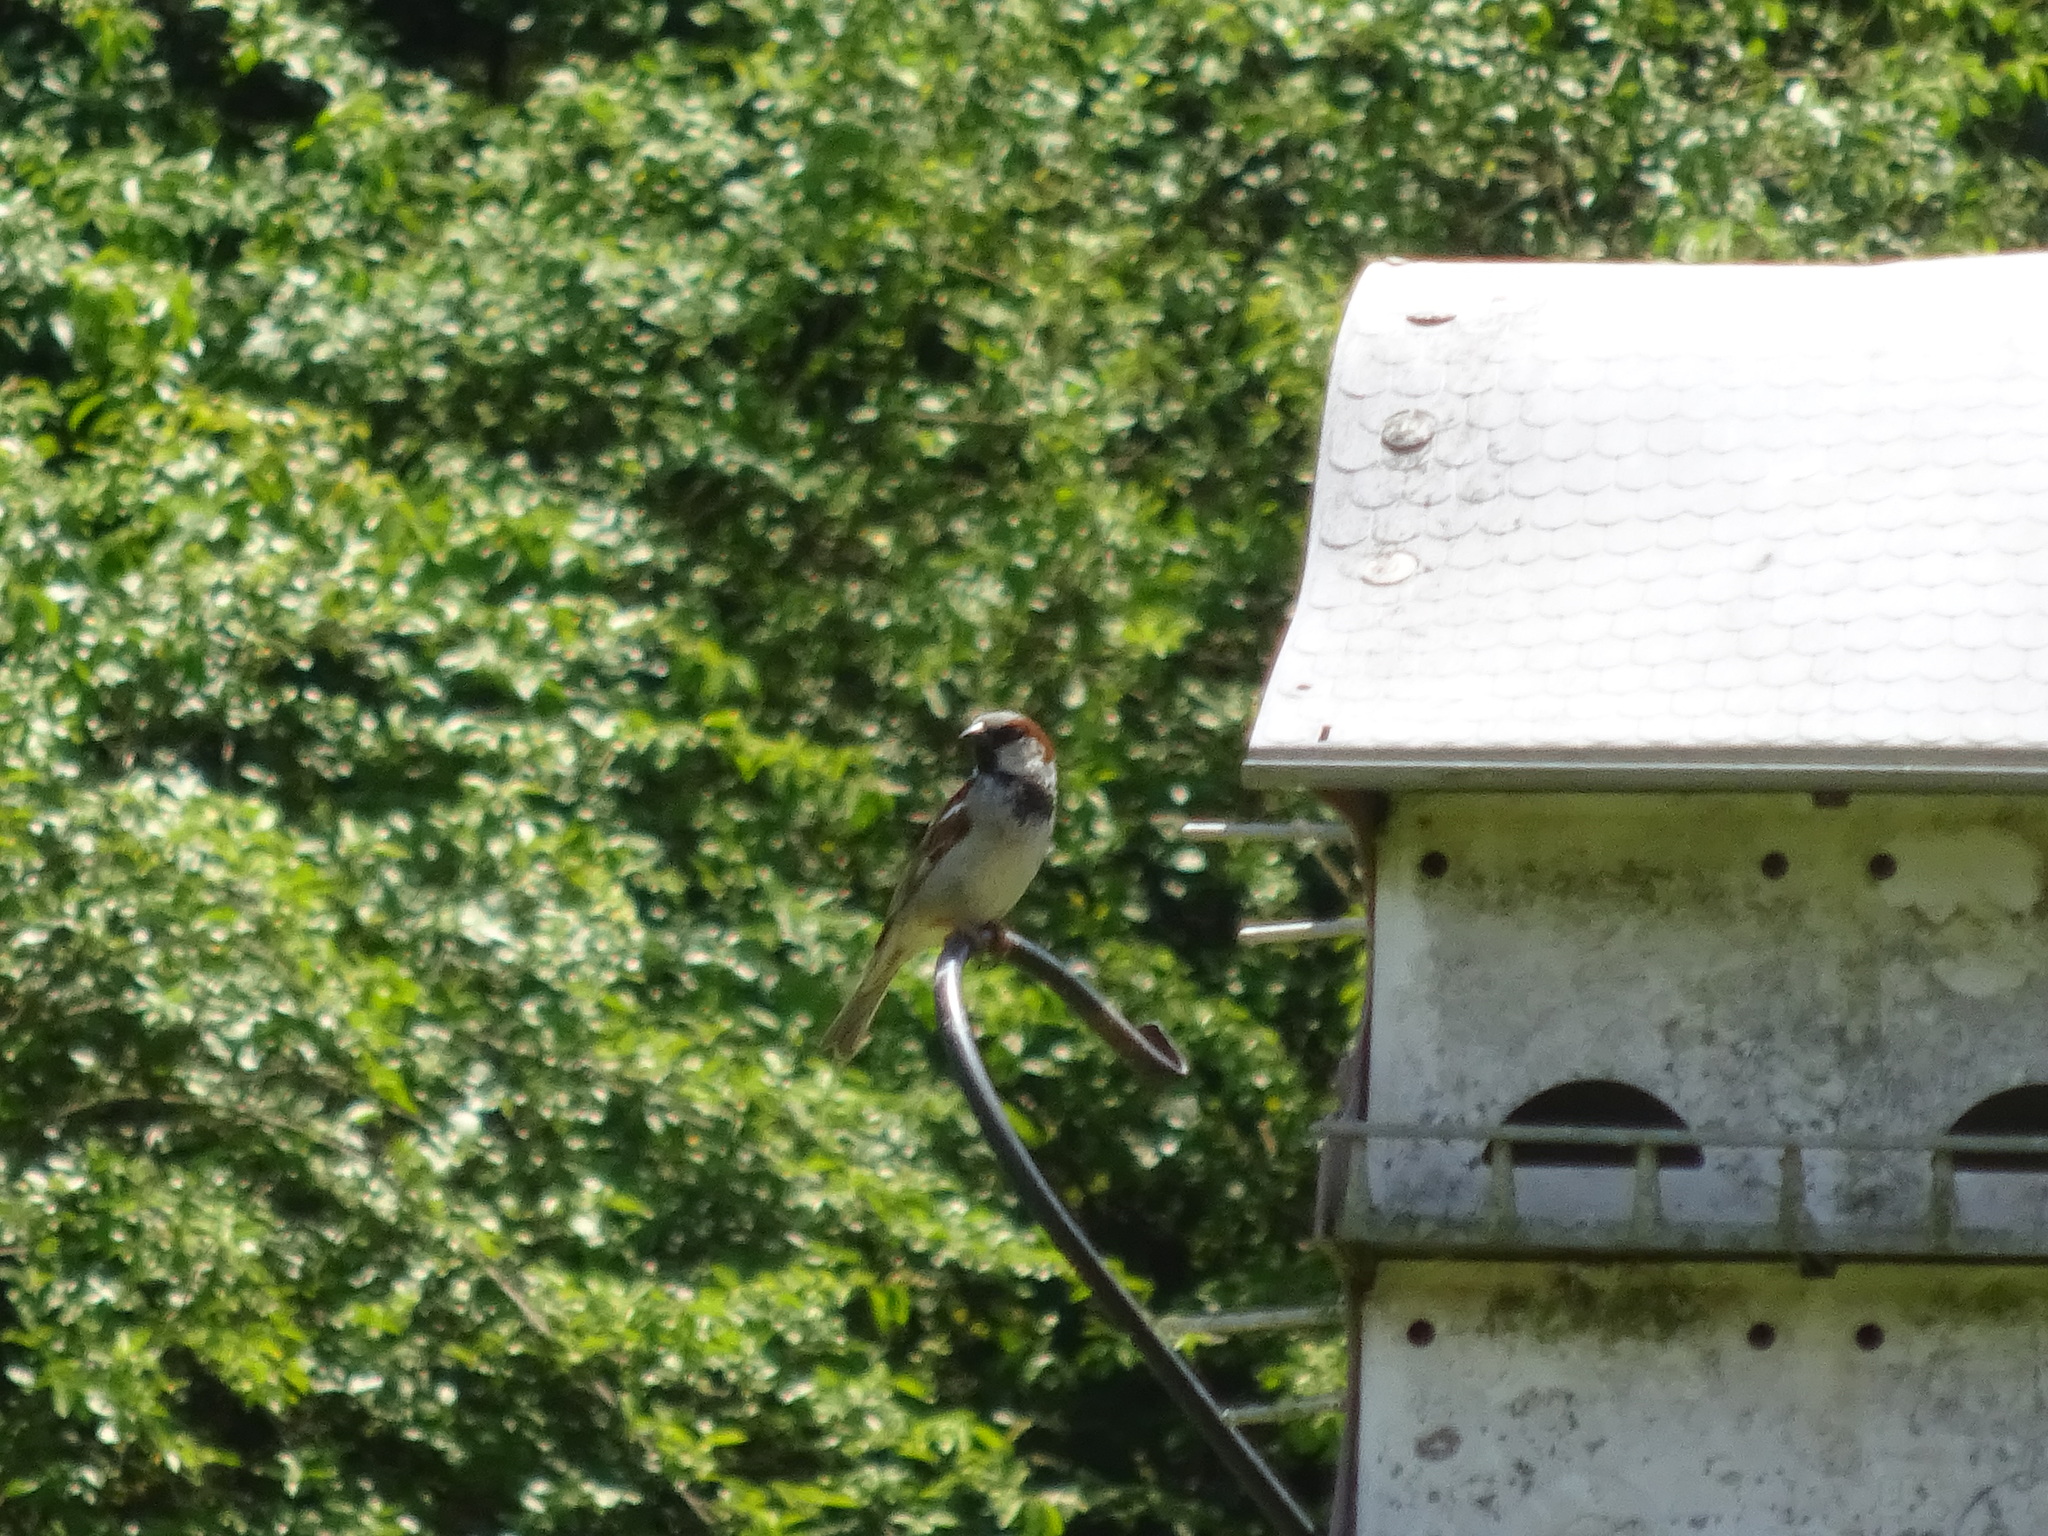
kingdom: Animalia
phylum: Chordata
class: Aves
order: Passeriformes
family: Passeridae
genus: Passer
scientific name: Passer domesticus
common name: House sparrow
